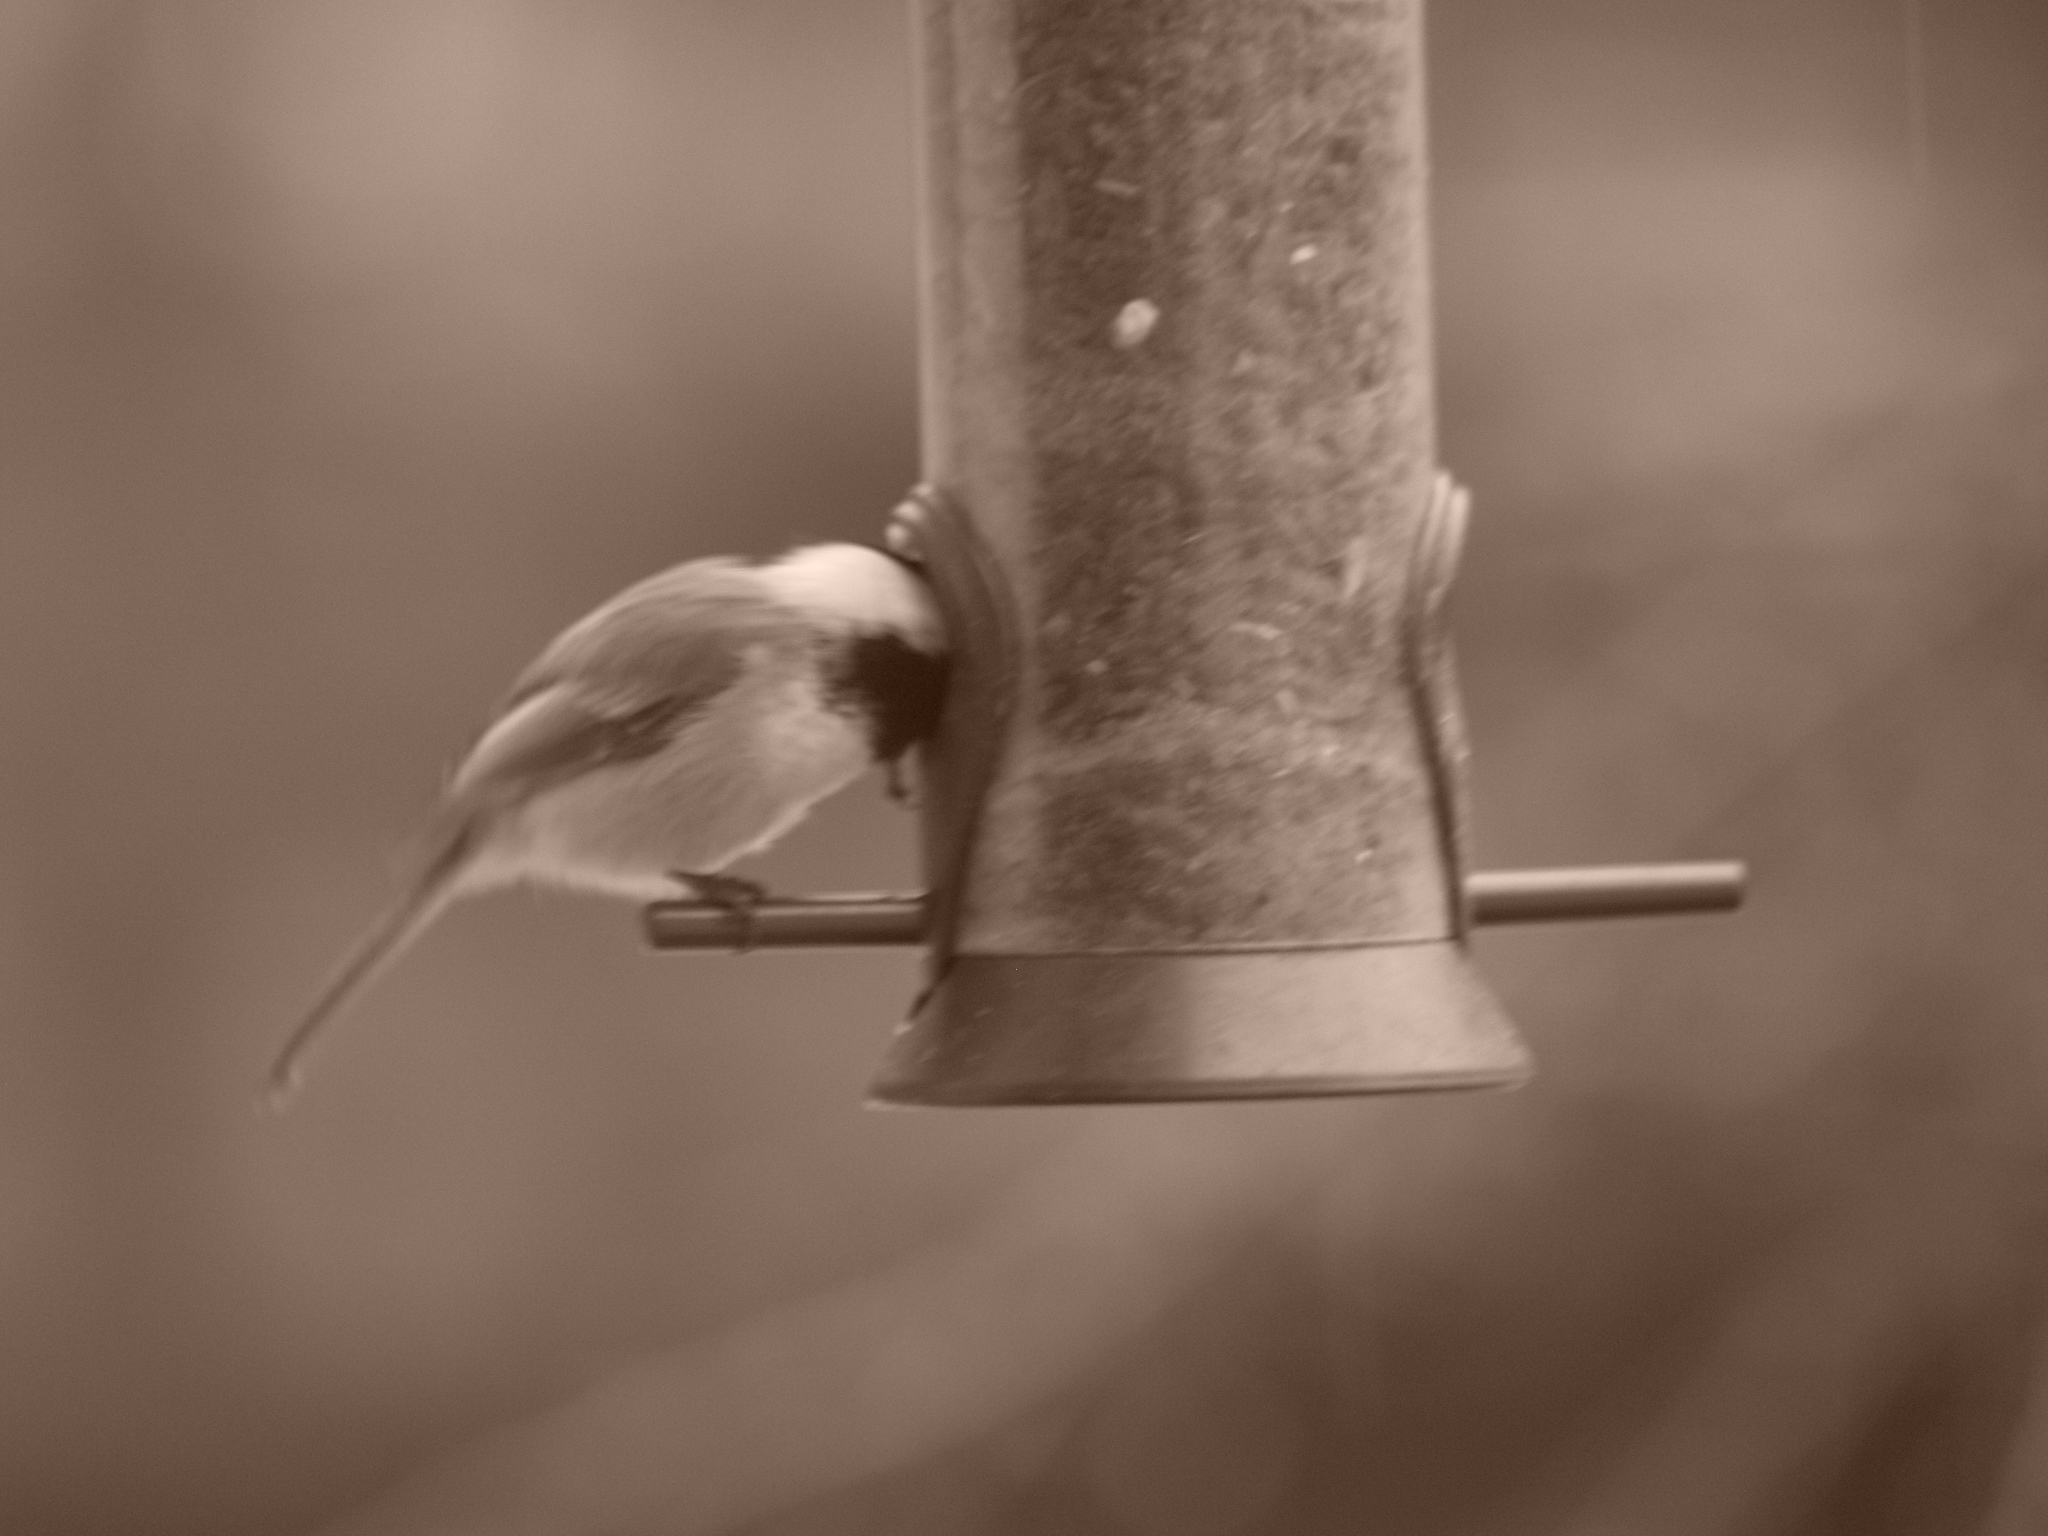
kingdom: Animalia
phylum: Chordata
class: Aves
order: Passeriformes
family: Paridae
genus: Poecile
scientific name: Poecile atricapillus
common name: Black-capped chickadee
